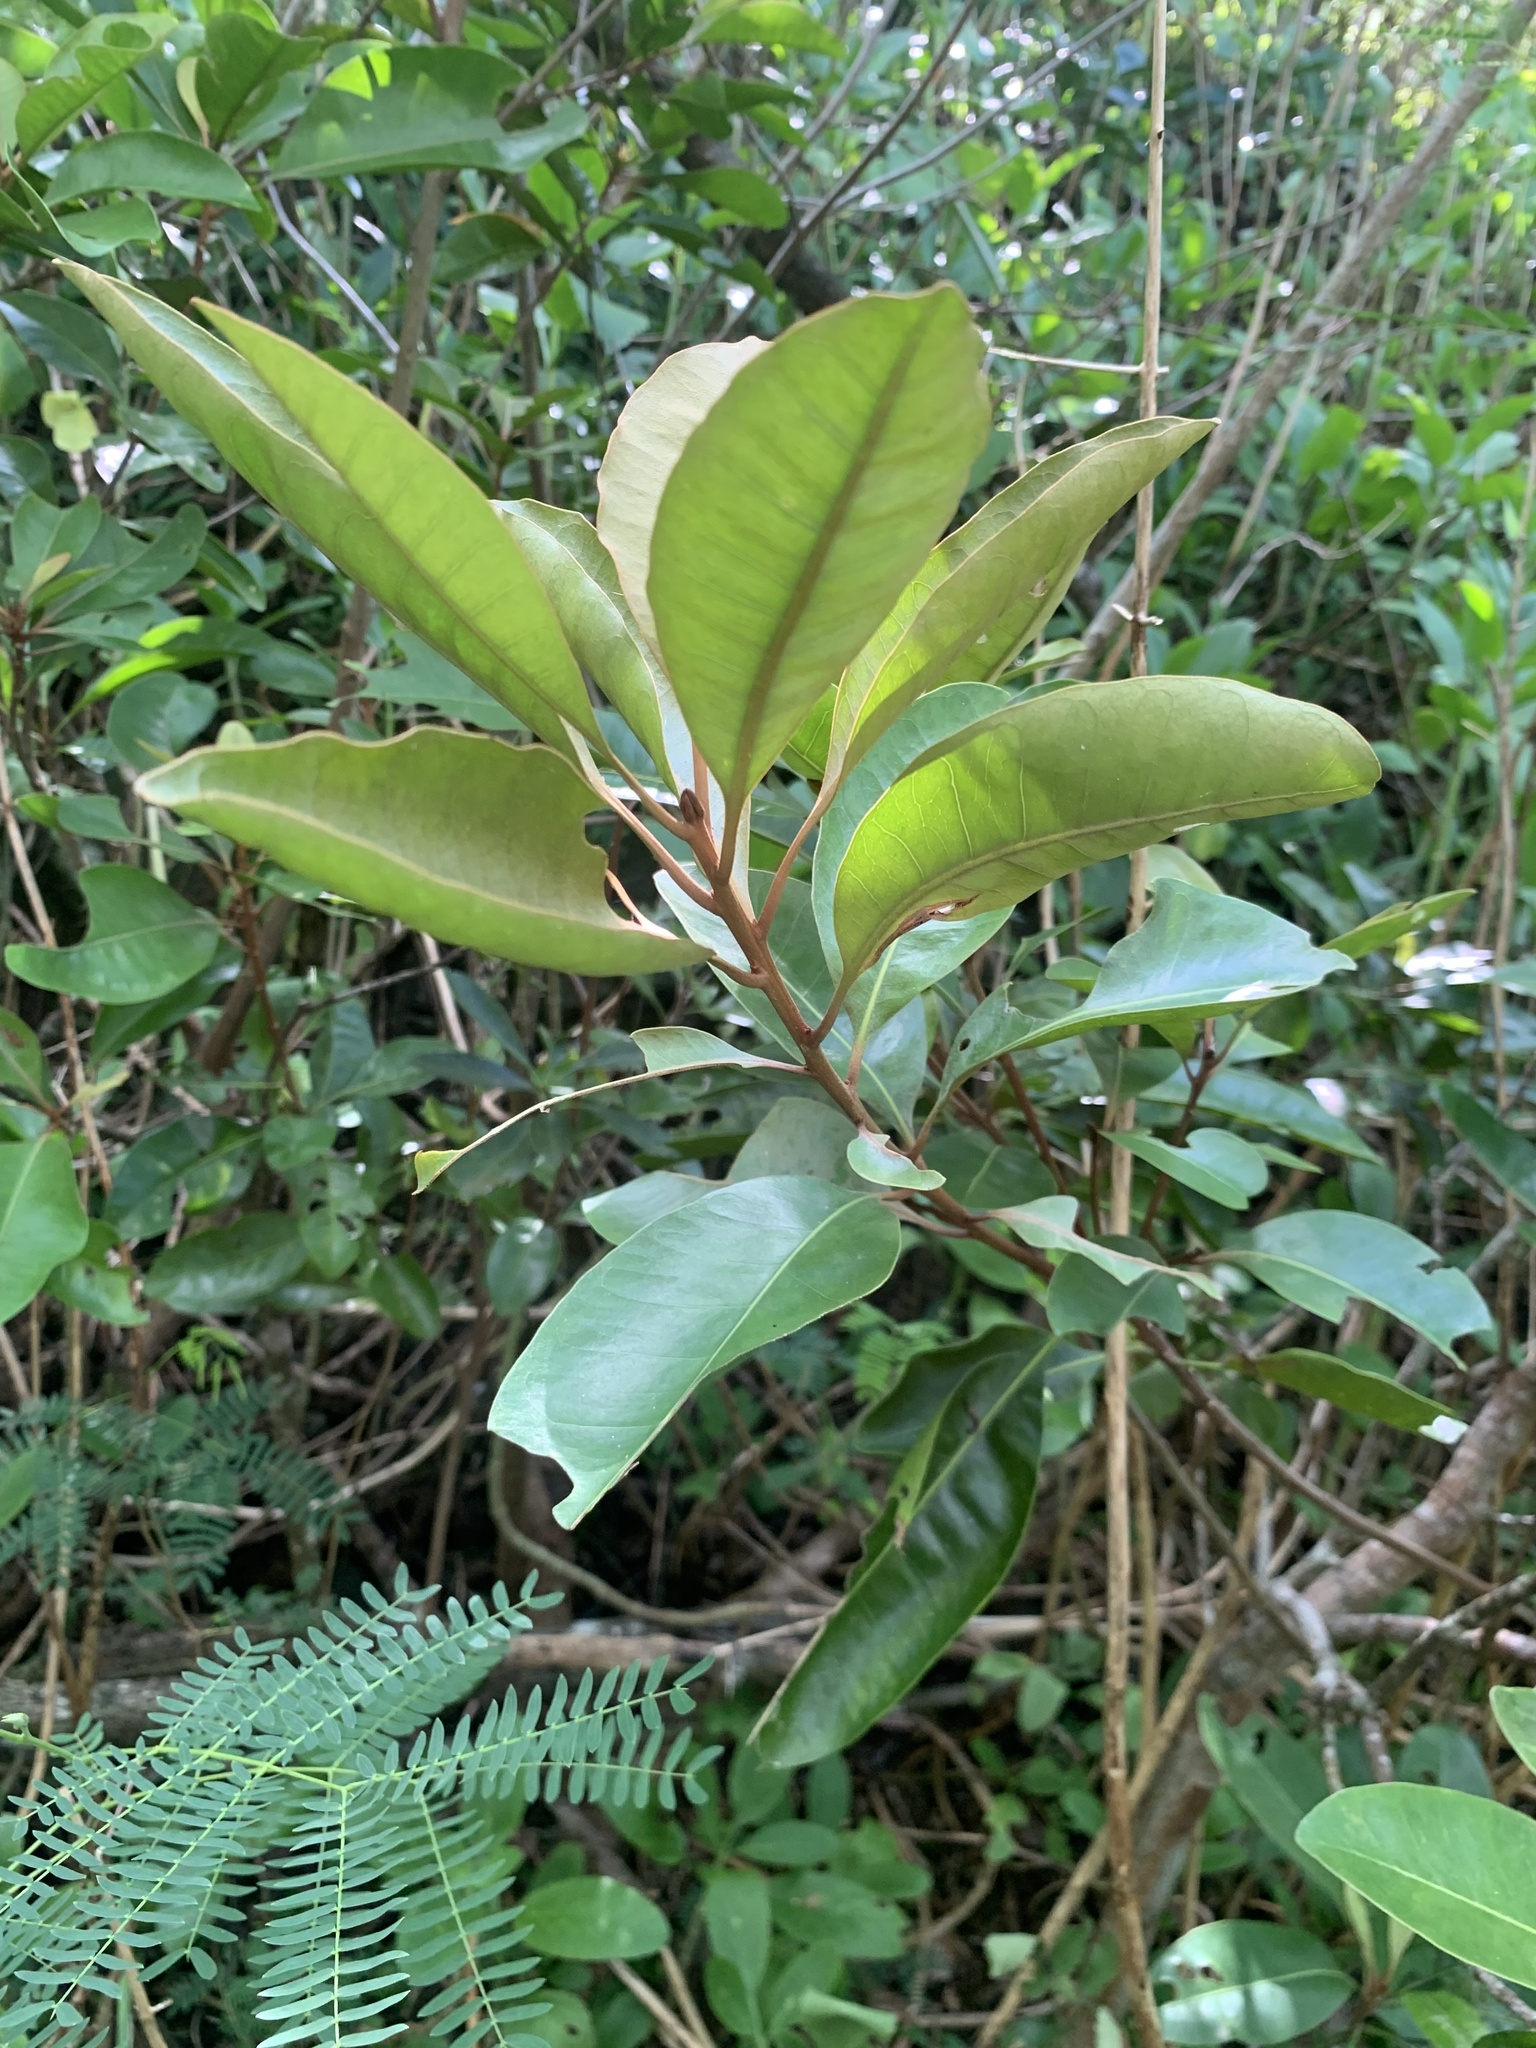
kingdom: Plantae
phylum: Tracheophyta
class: Magnoliopsida
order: Ericales
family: Sapotaceae
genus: Planchonella
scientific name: Planchonella obovata
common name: Black-ash
